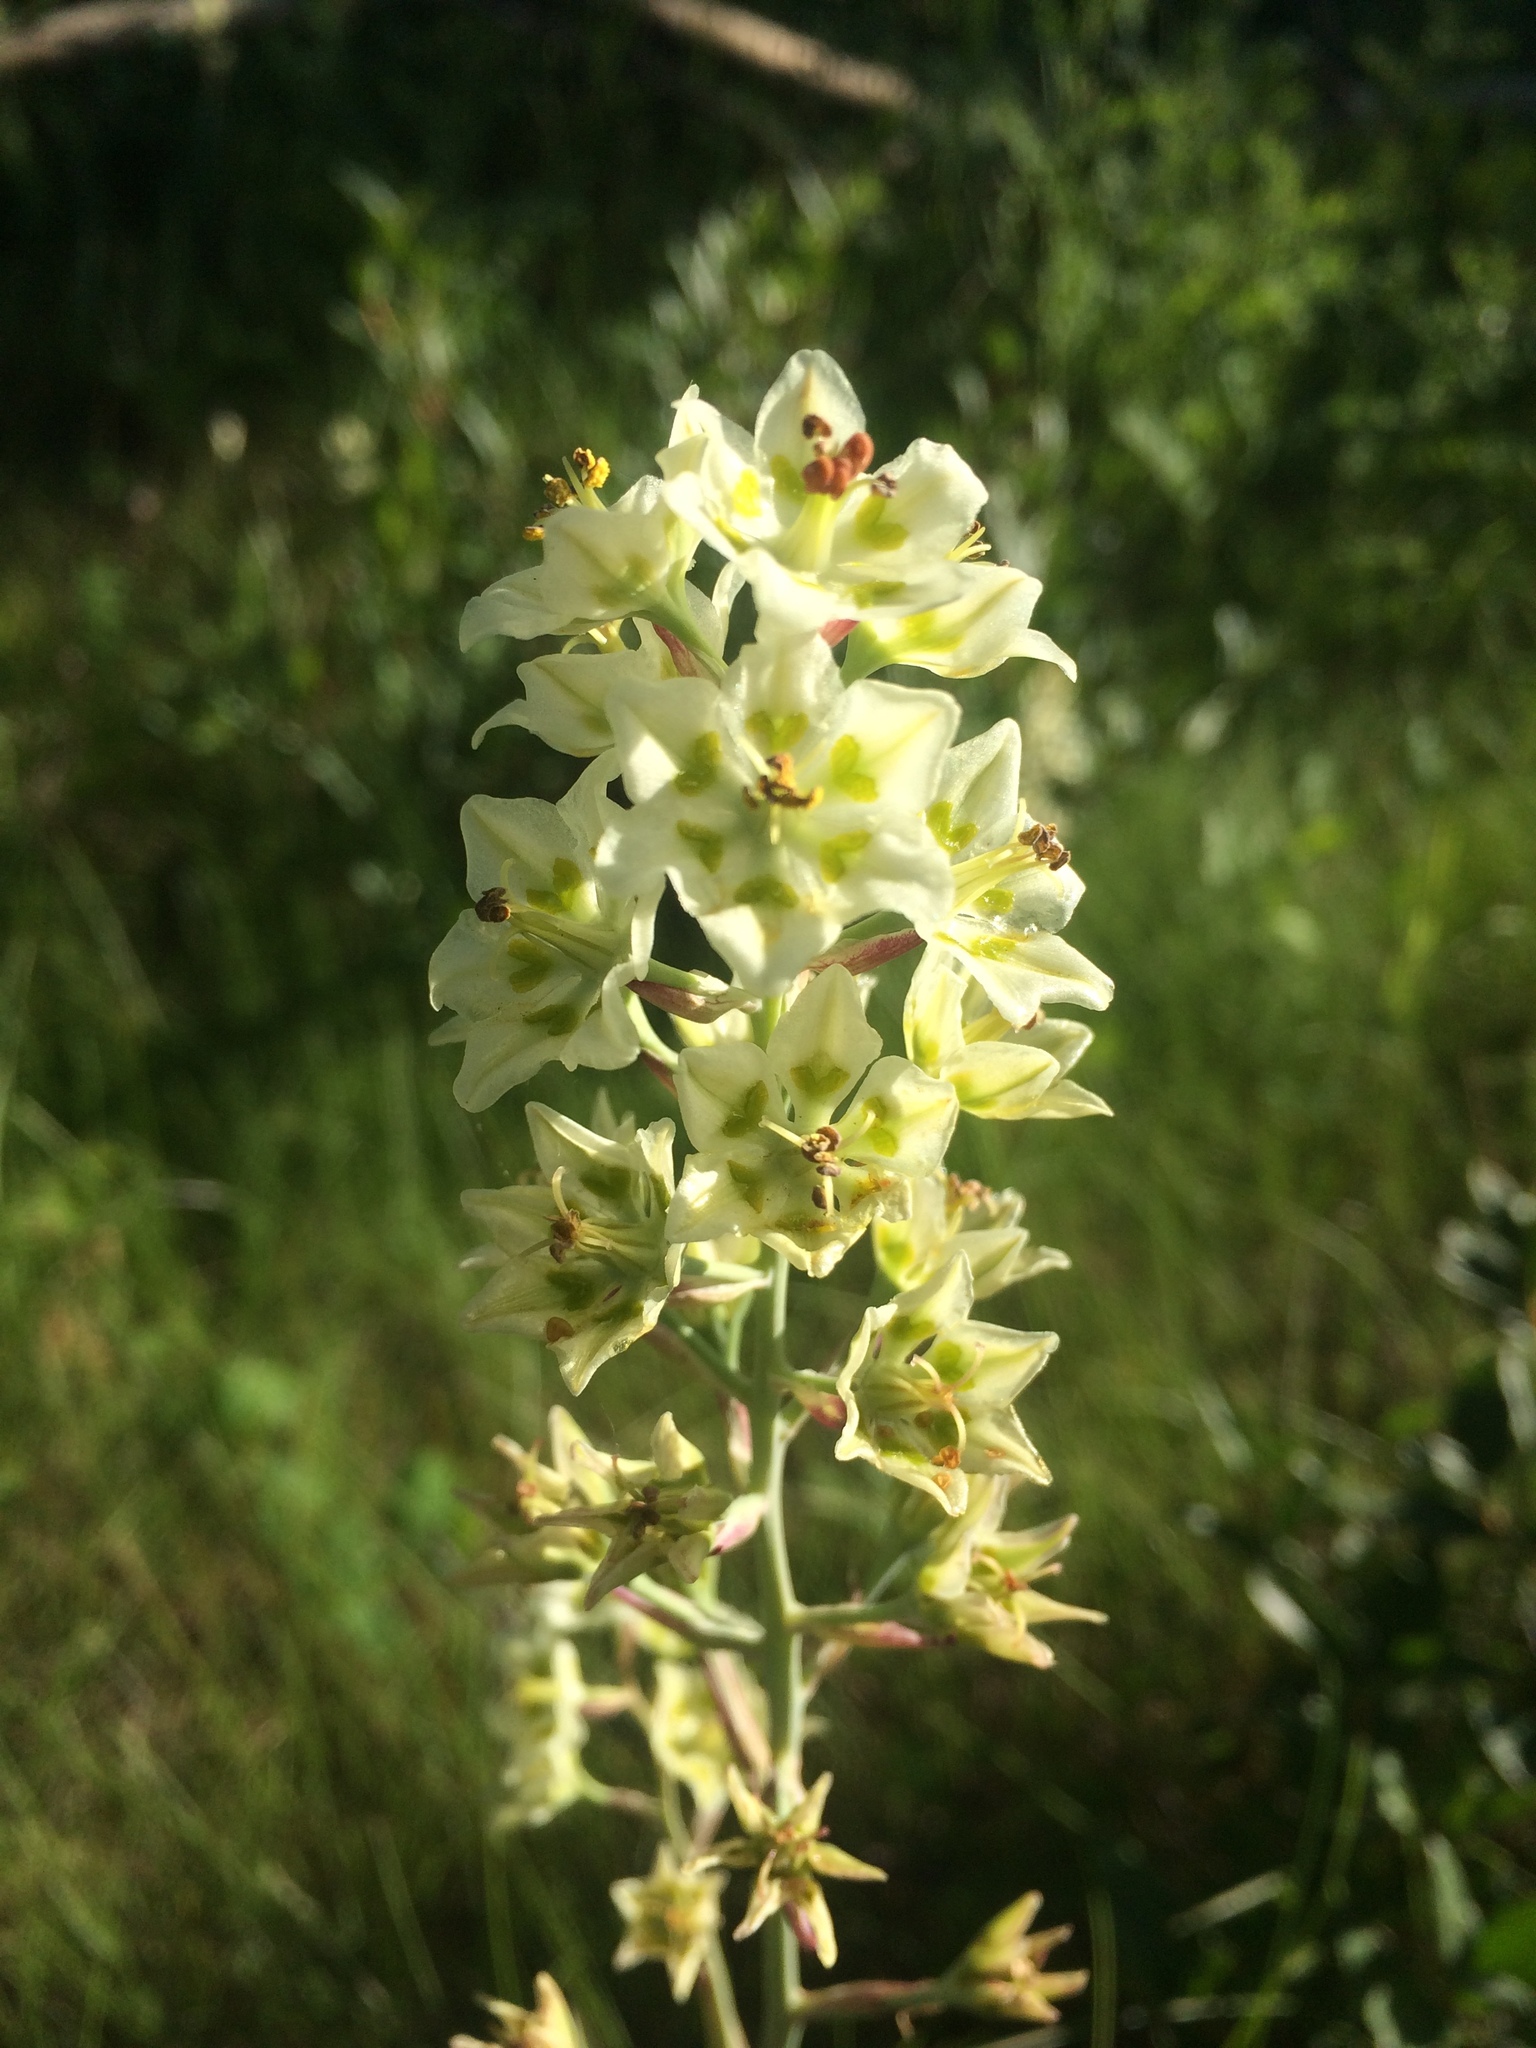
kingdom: Plantae
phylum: Tracheophyta
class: Liliopsida
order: Liliales
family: Melanthiaceae
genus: Anticlea
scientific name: Anticlea elegans
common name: Mountain death camas
